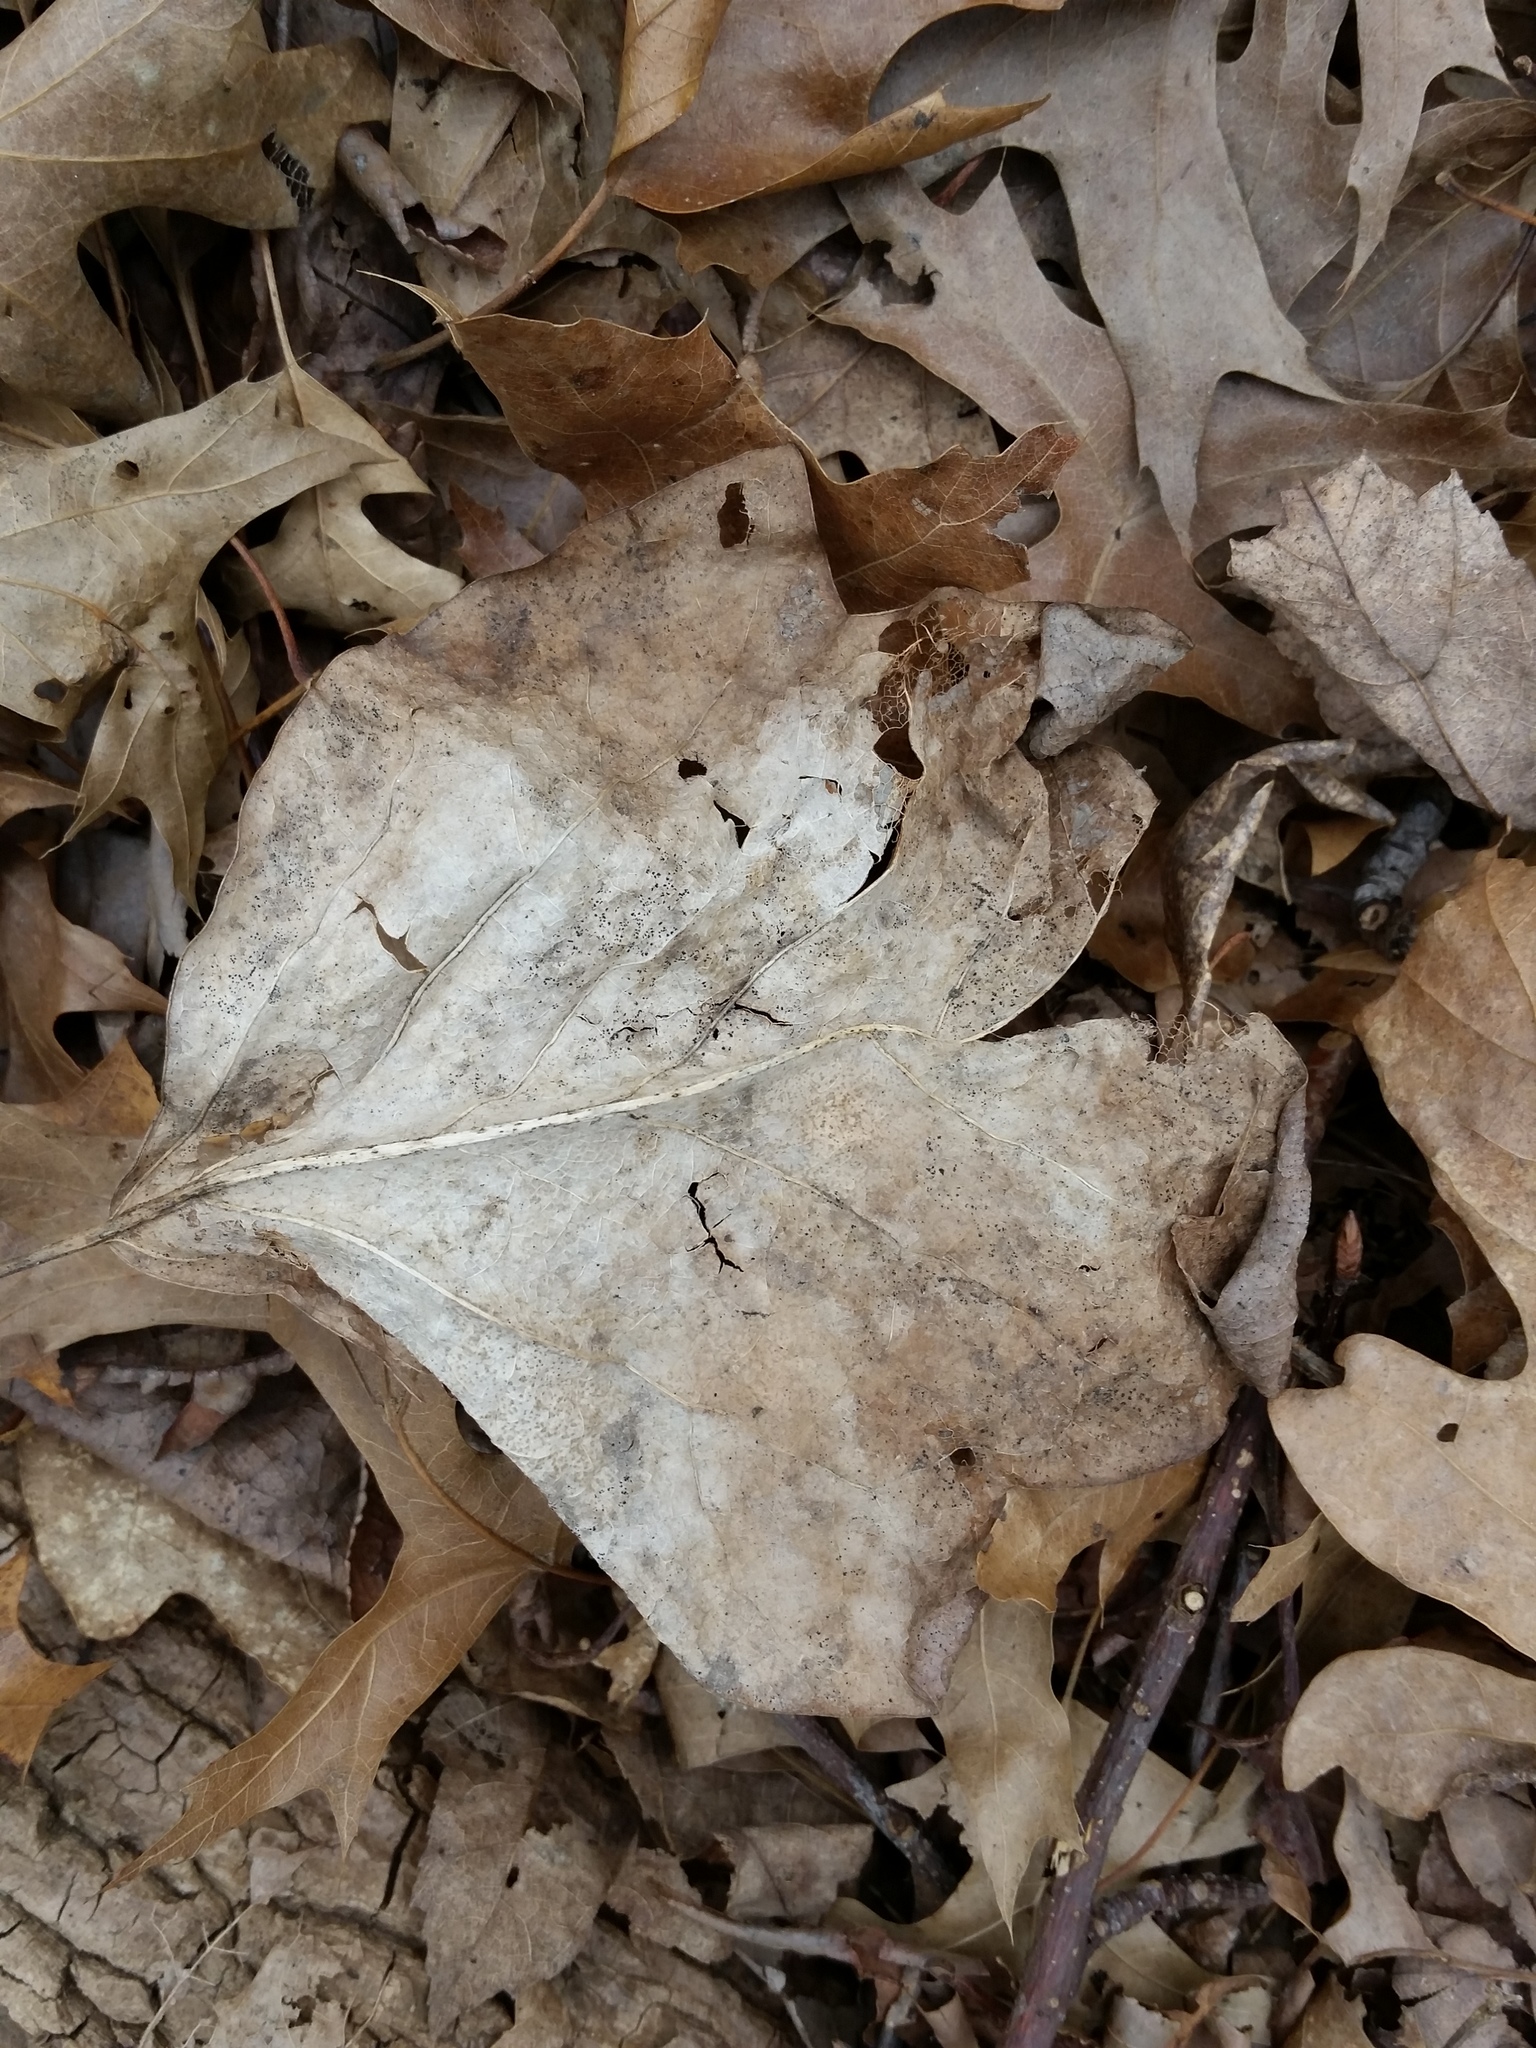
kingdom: Plantae
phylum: Tracheophyta
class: Magnoliopsida
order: Magnoliales
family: Magnoliaceae
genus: Liriodendron
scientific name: Liriodendron tulipifera
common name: Tulip tree
